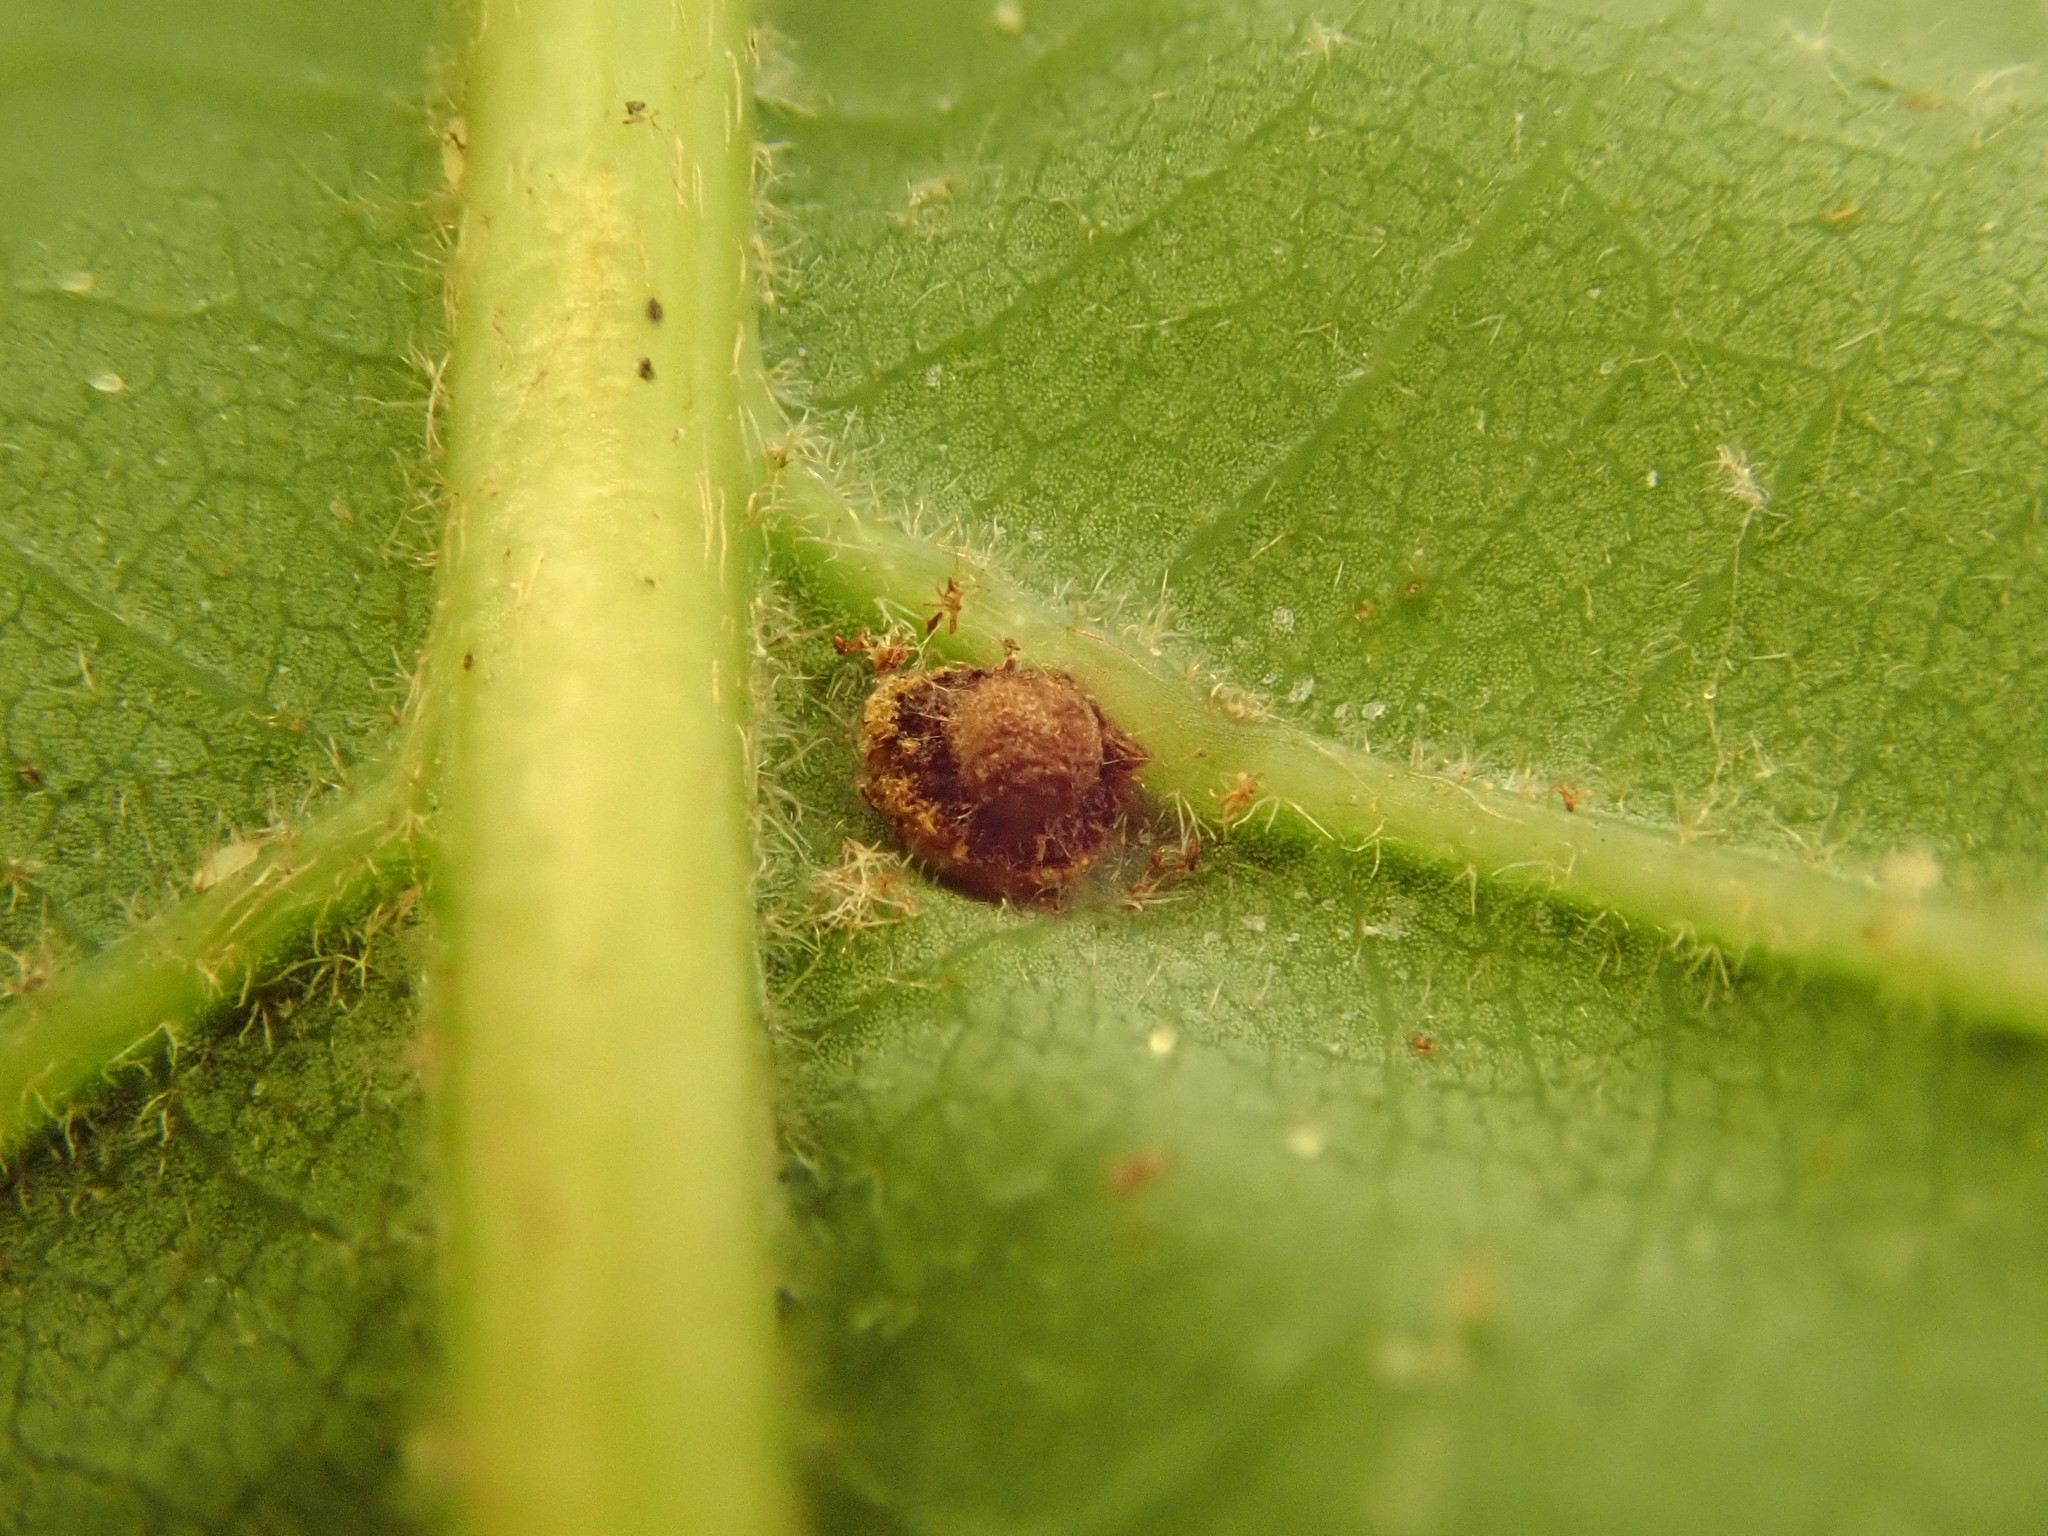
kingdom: Animalia
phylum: Arthropoda
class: Insecta
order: Hymenoptera
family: Cynipidae
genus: Philonix
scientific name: Philonix fulvicollis
